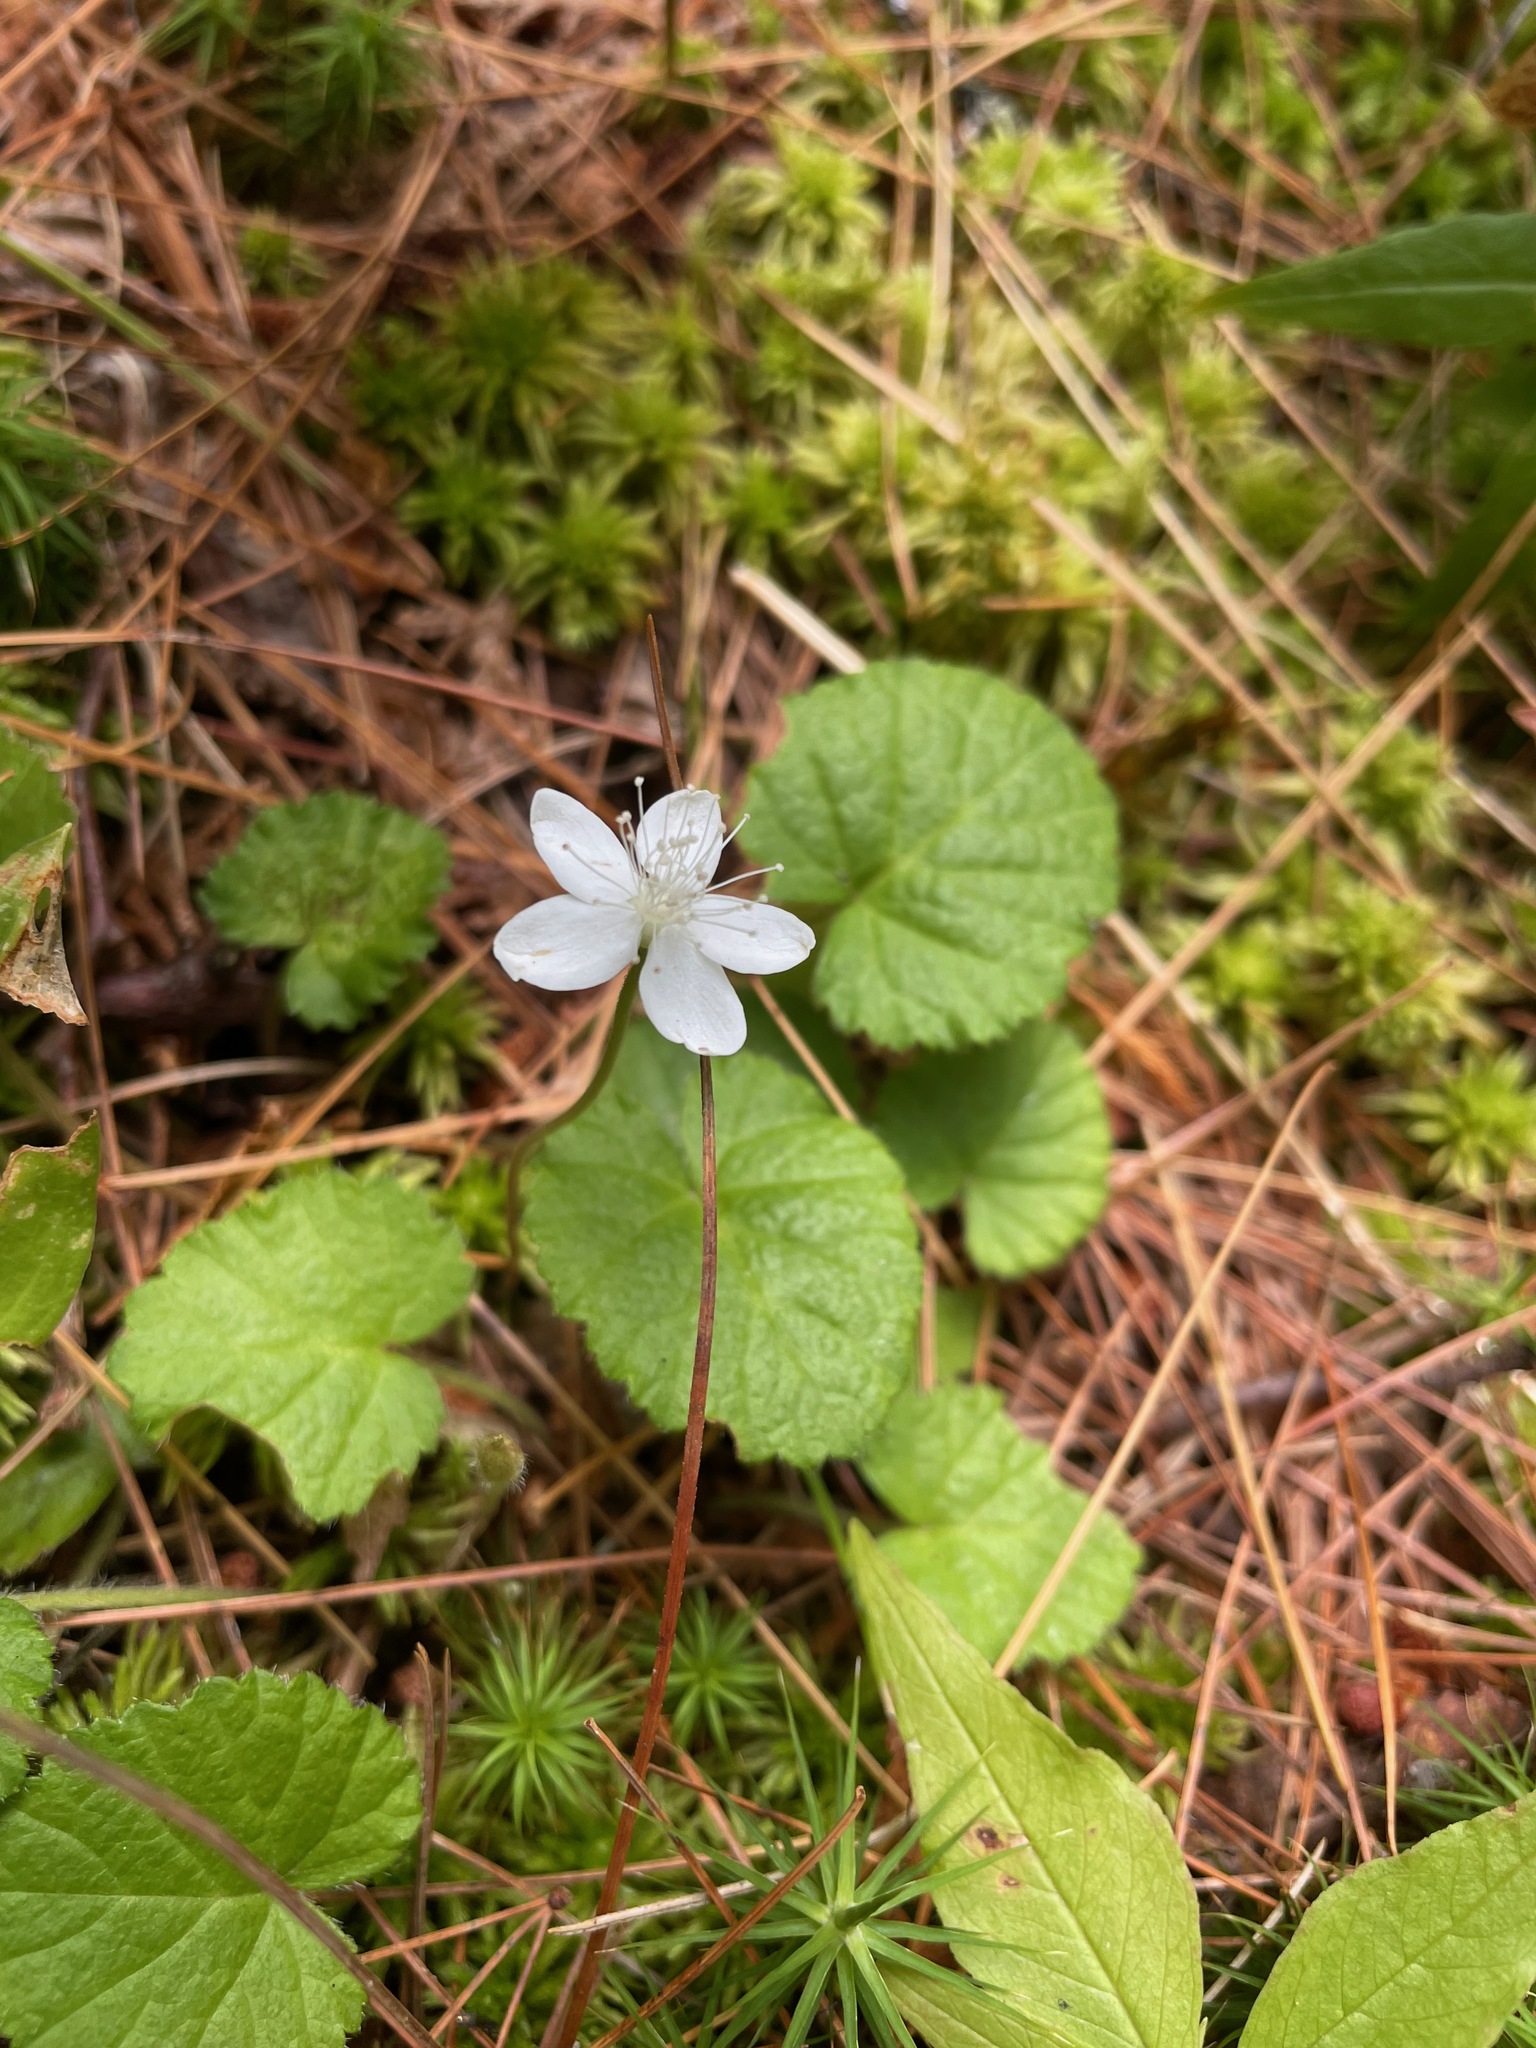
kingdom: Plantae
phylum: Tracheophyta
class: Magnoliopsida
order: Rosales
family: Rosaceae
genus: Dalibarda
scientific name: Dalibarda repens
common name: Dewdrop
